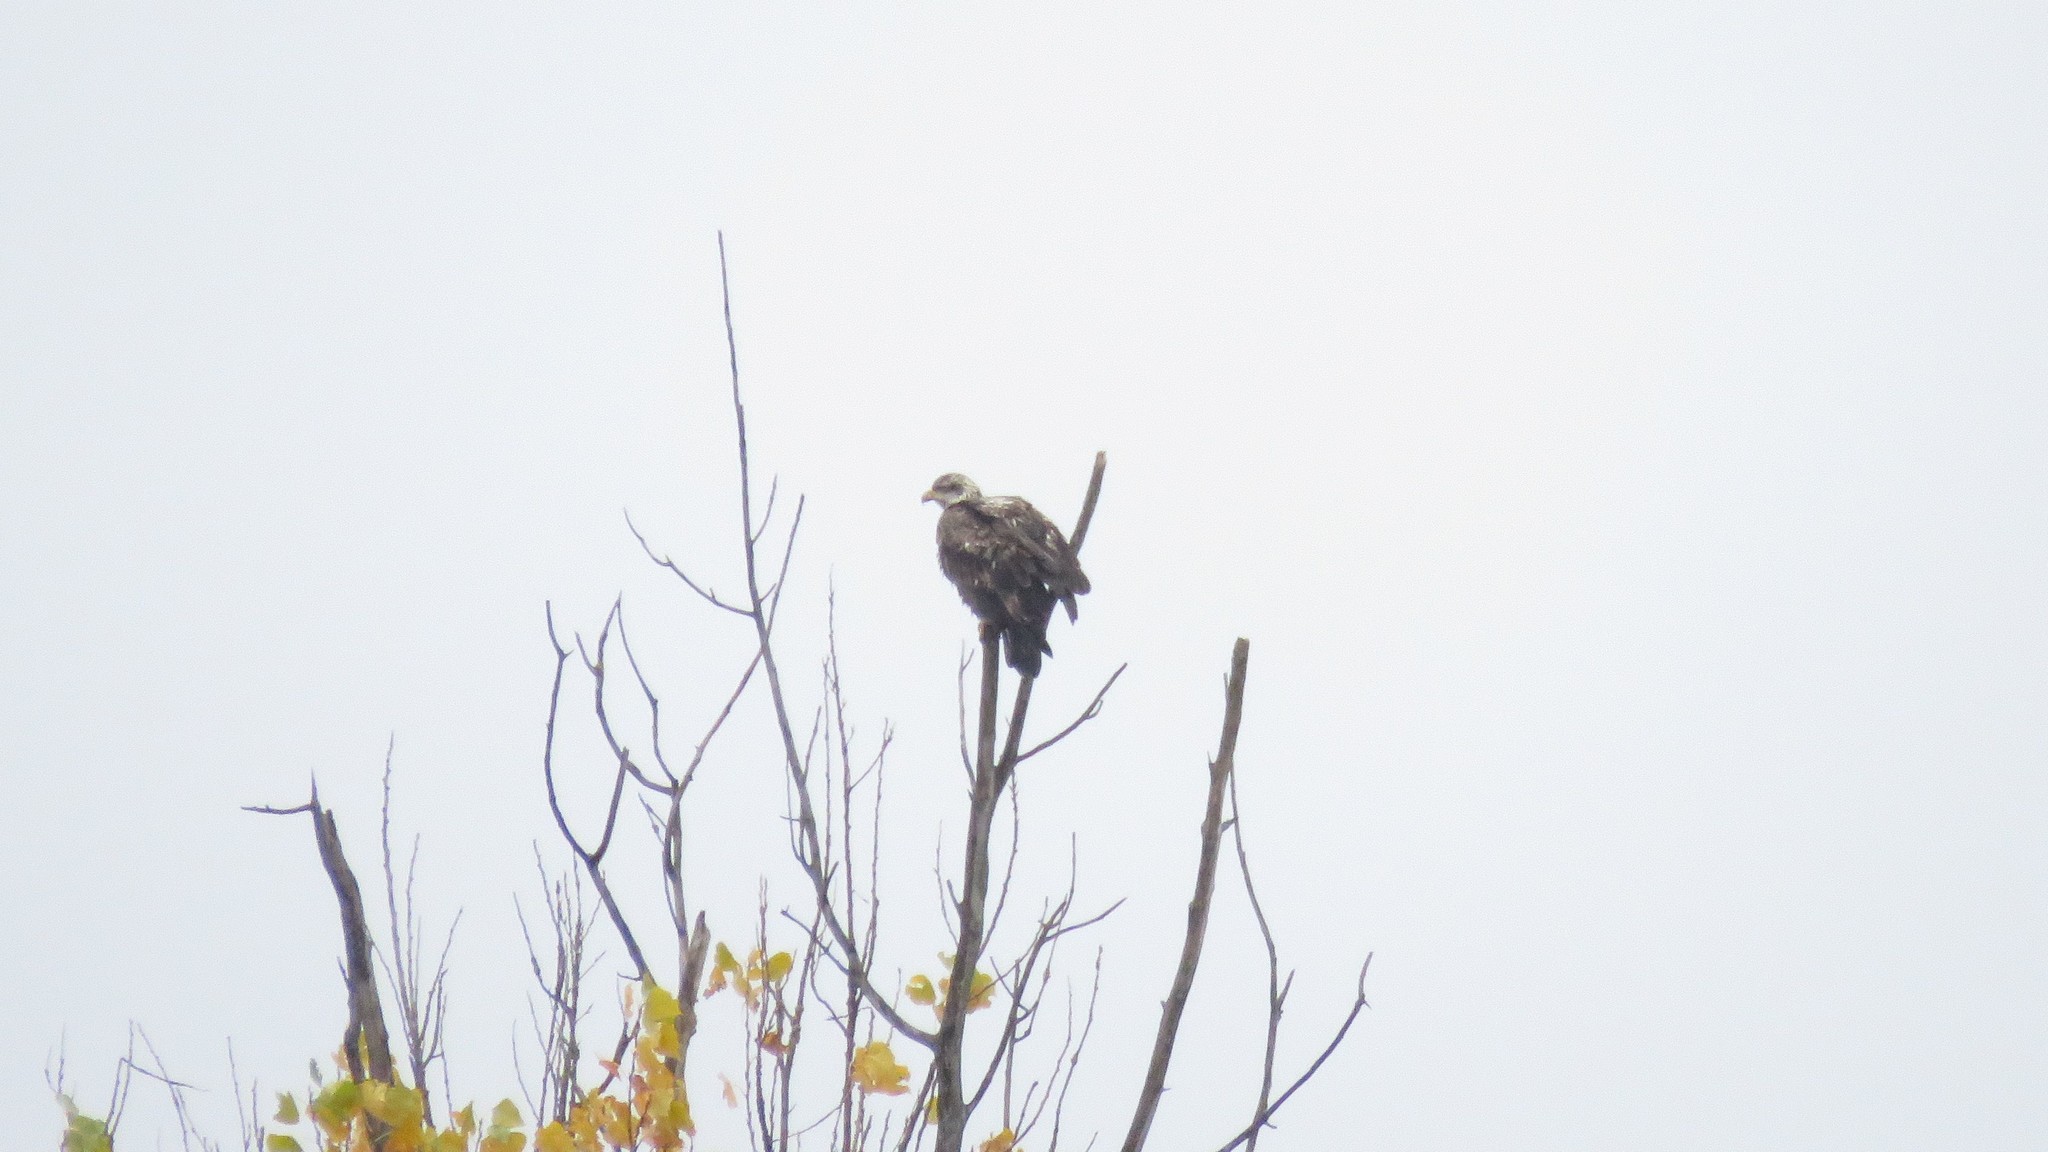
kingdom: Animalia
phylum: Chordata
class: Aves
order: Accipitriformes
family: Accipitridae
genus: Haliaeetus
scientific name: Haliaeetus leucocephalus
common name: Bald eagle
